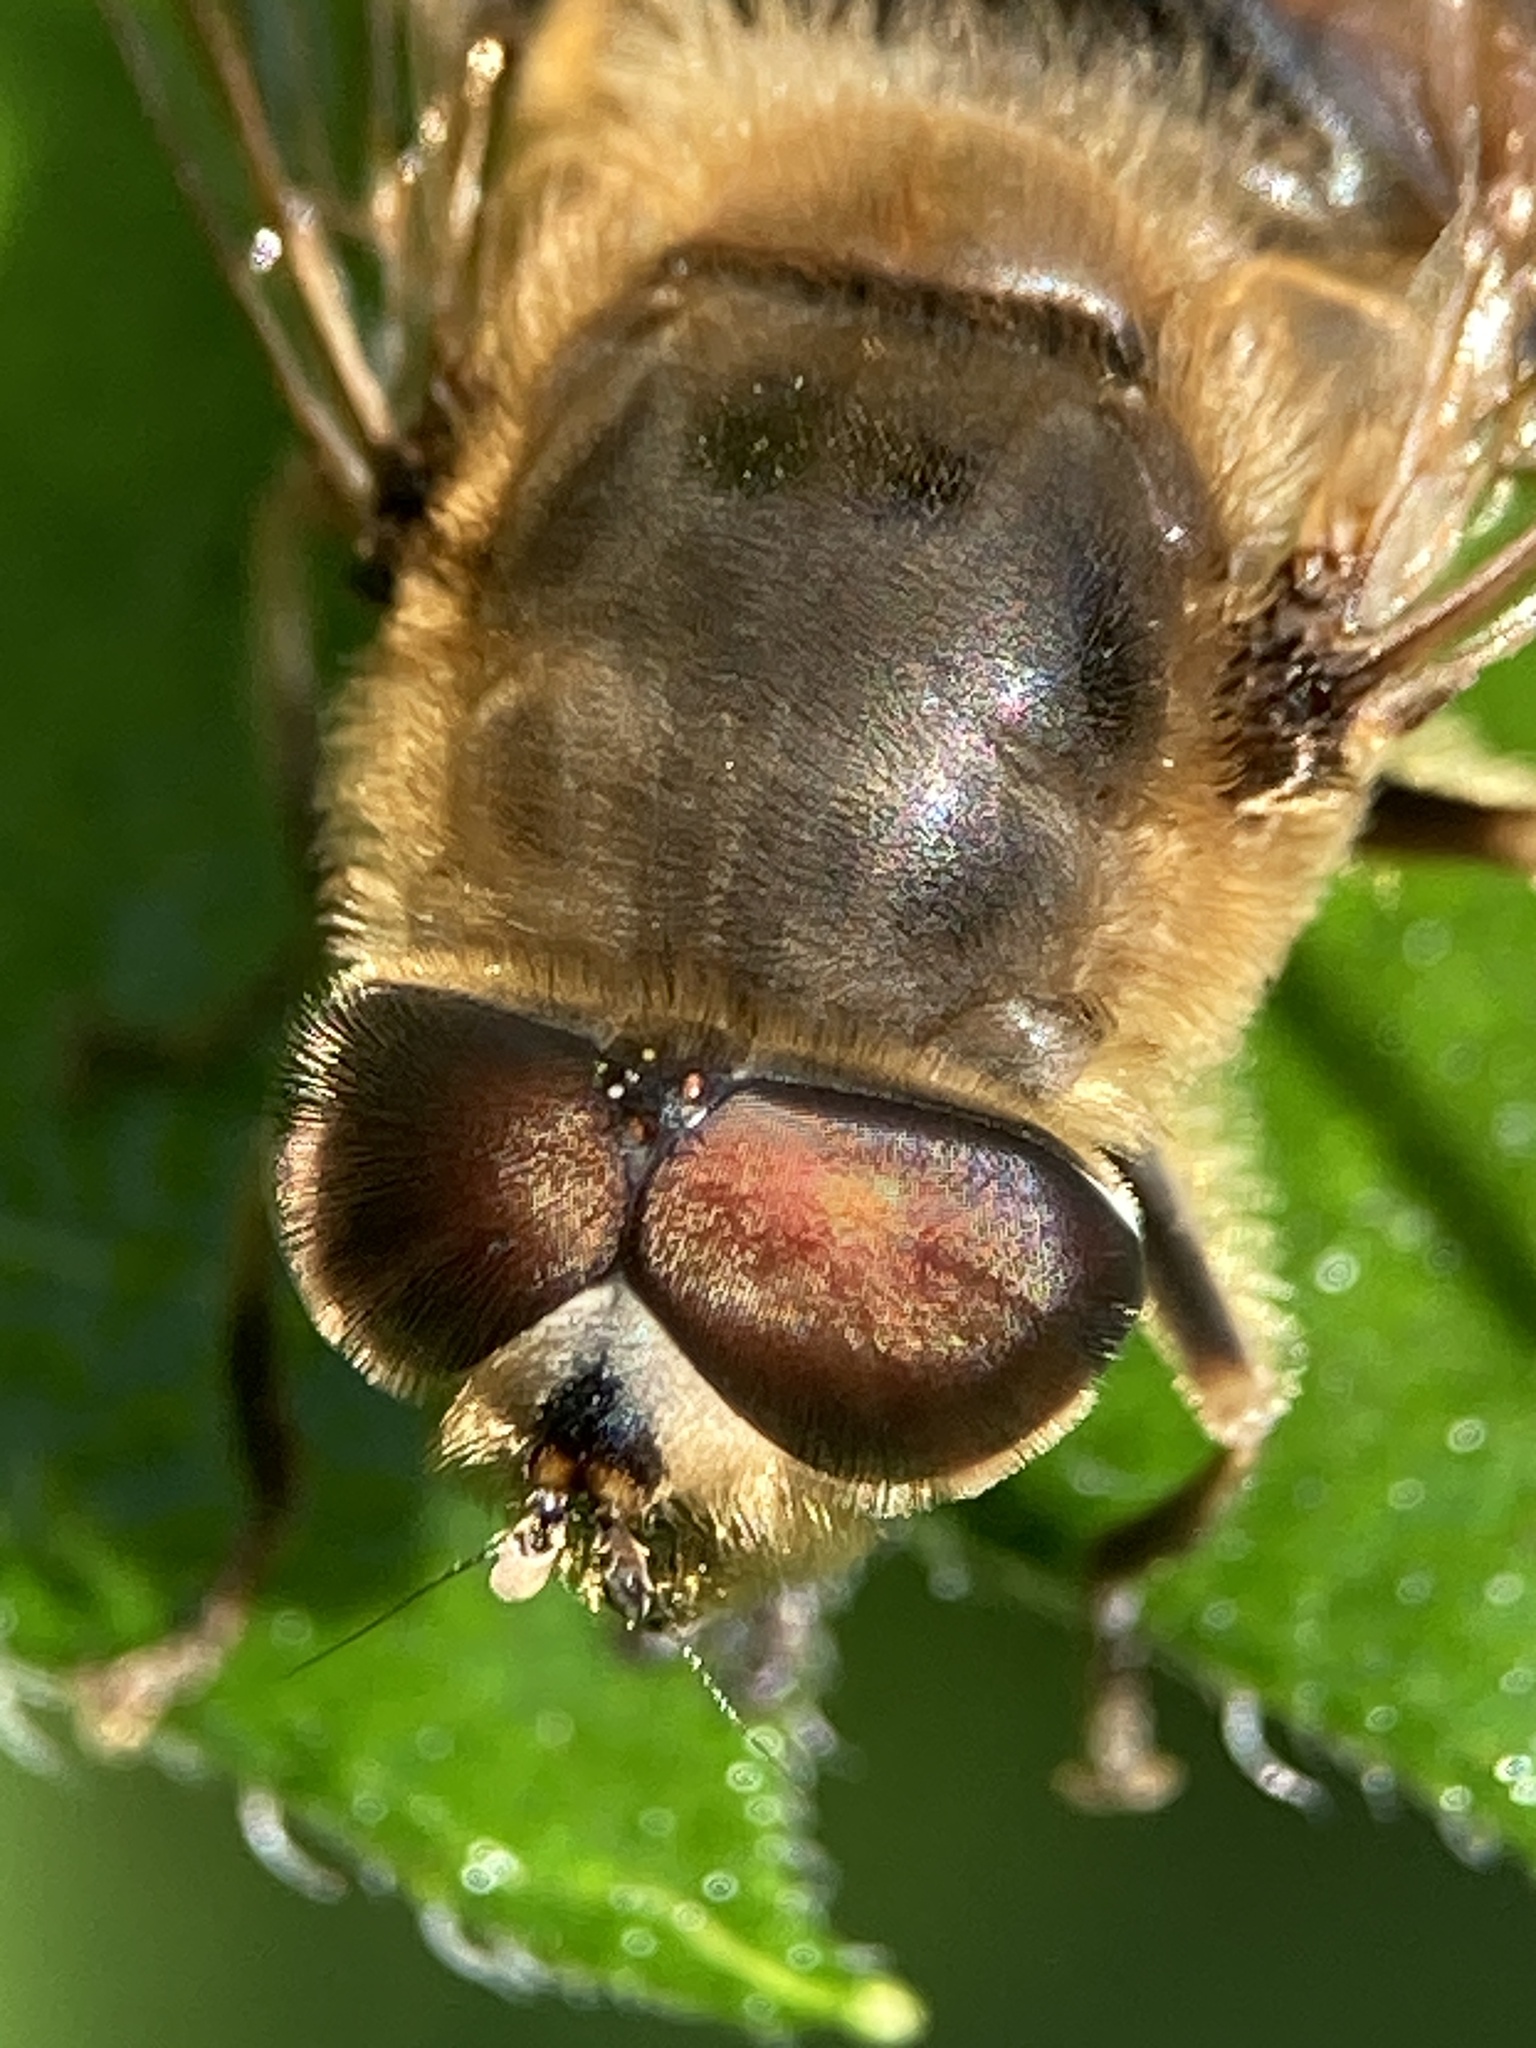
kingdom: Animalia
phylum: Arthropoda
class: Insecta
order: Diptera
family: Syrphidae
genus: Eristalis
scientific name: Eristalis tenax
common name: Drone fly
